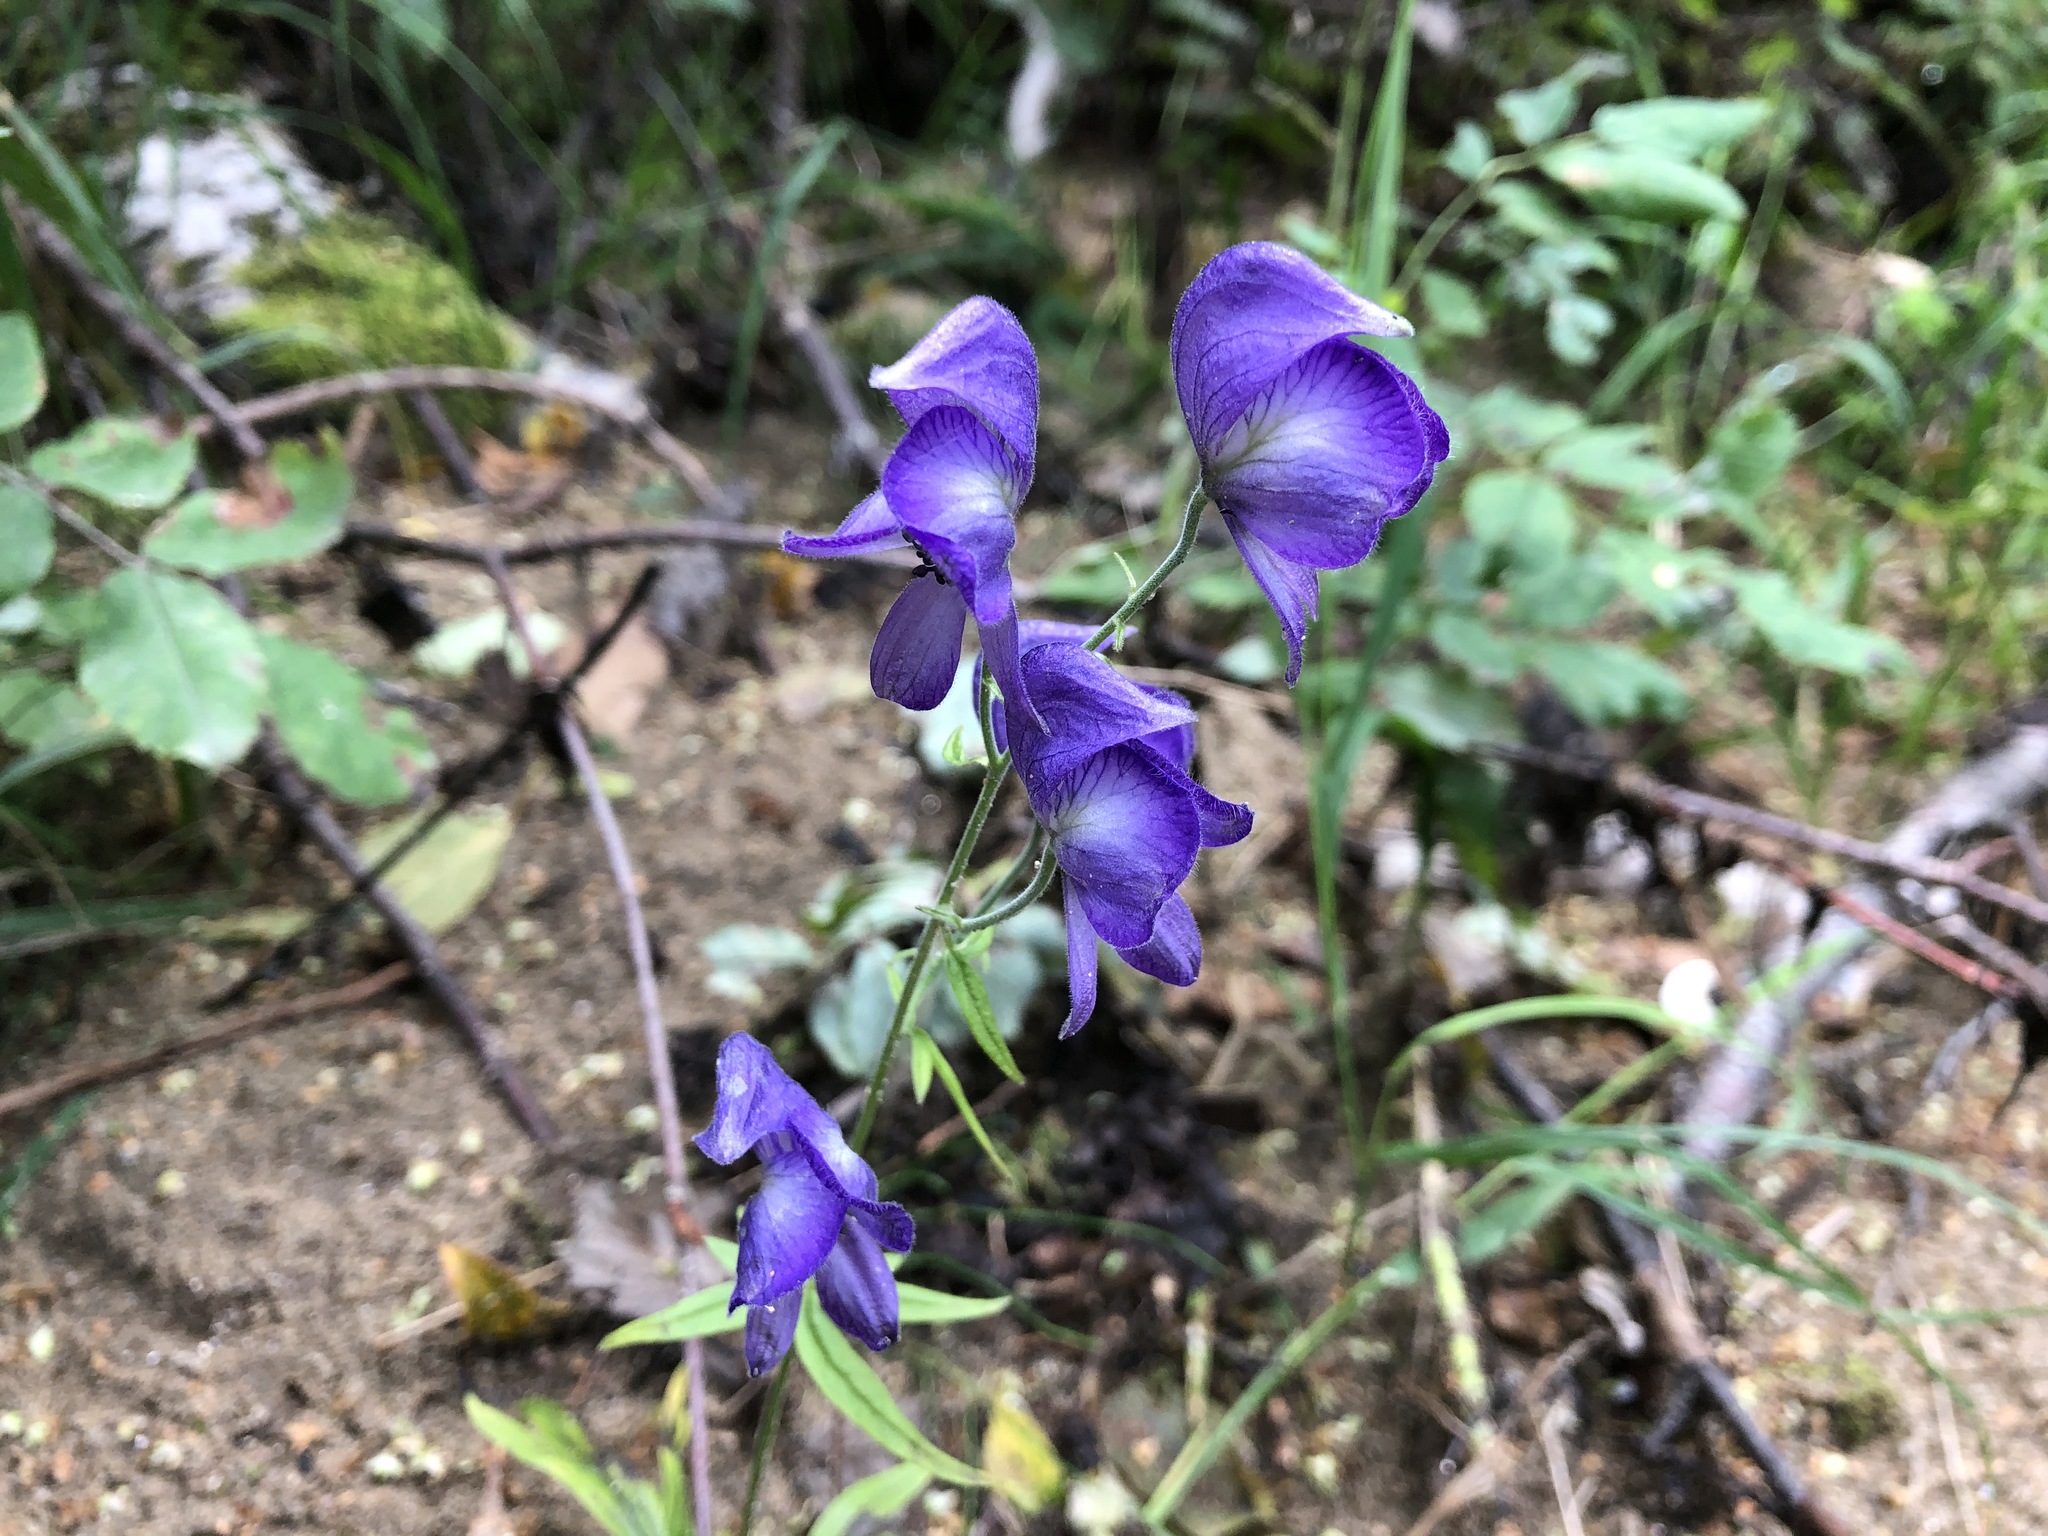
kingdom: Plantae
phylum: Tracheophyta
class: Magnoliopsida
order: Ranunculales
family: Ranunculaceae
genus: Aconitum
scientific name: Aconitum delphiniifolium
